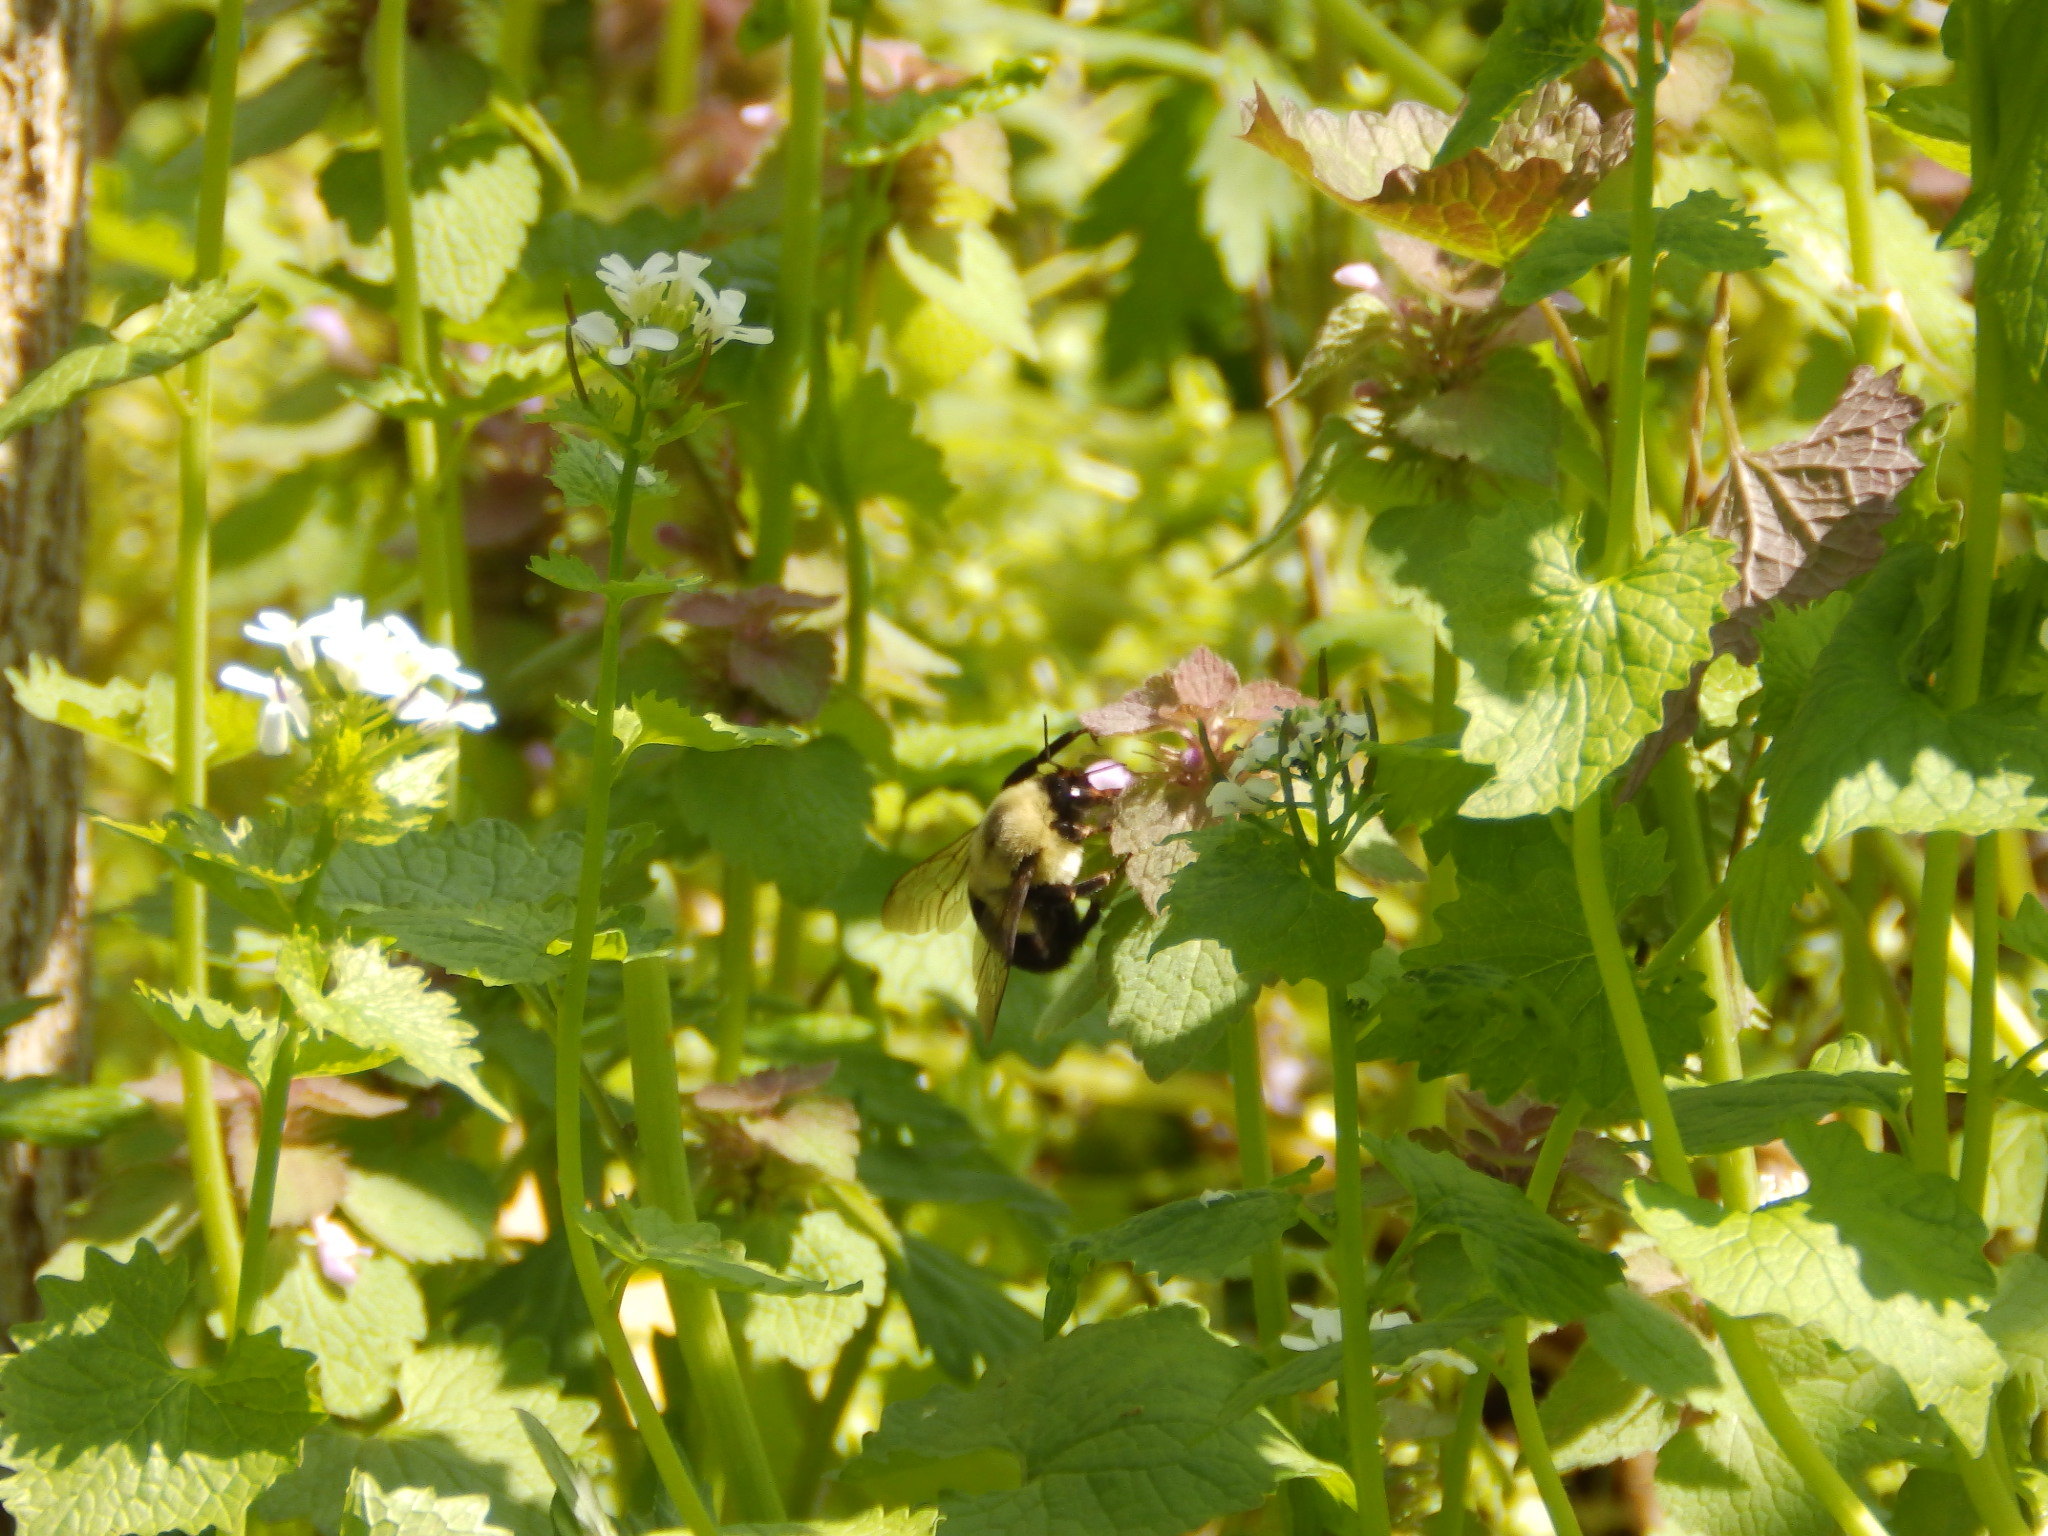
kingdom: Animalia
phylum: Arthropoda
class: Insecta
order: Hymenoptera
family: Apidae
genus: Bombus
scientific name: Bombus impatiens
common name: Common eastern bumble bee
